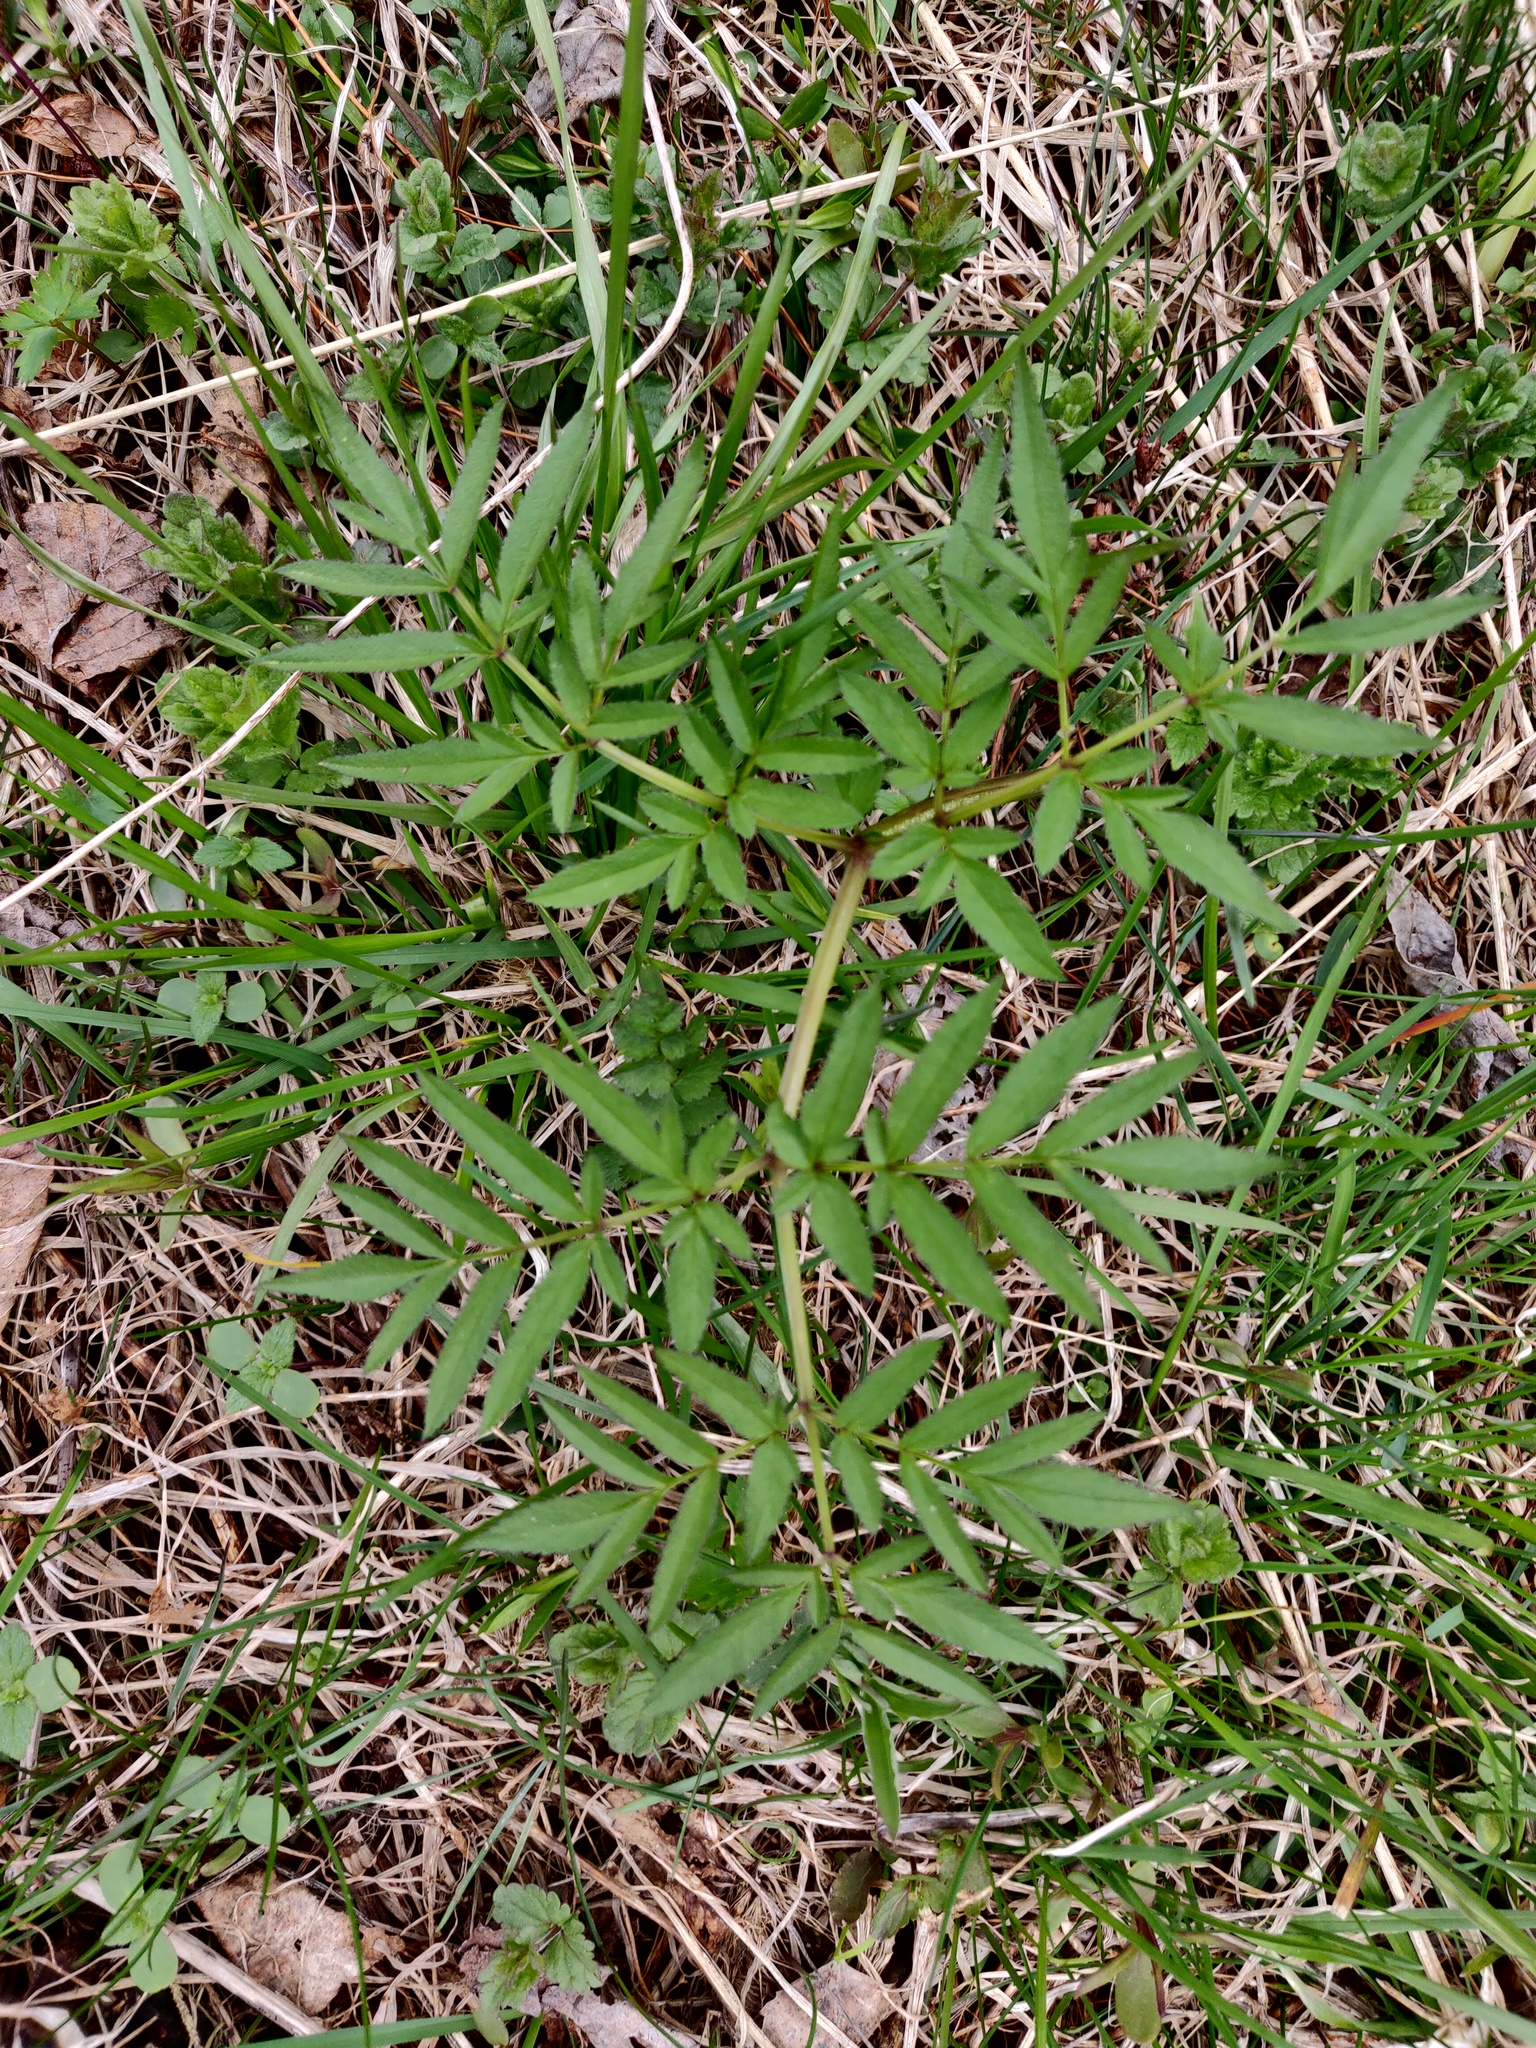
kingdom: Plantae
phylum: Tracheophyta
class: Magnoliopsida
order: Apiales
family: Apiaceae
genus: Angelica
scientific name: Angelica sylvestris
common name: Wild angelica
